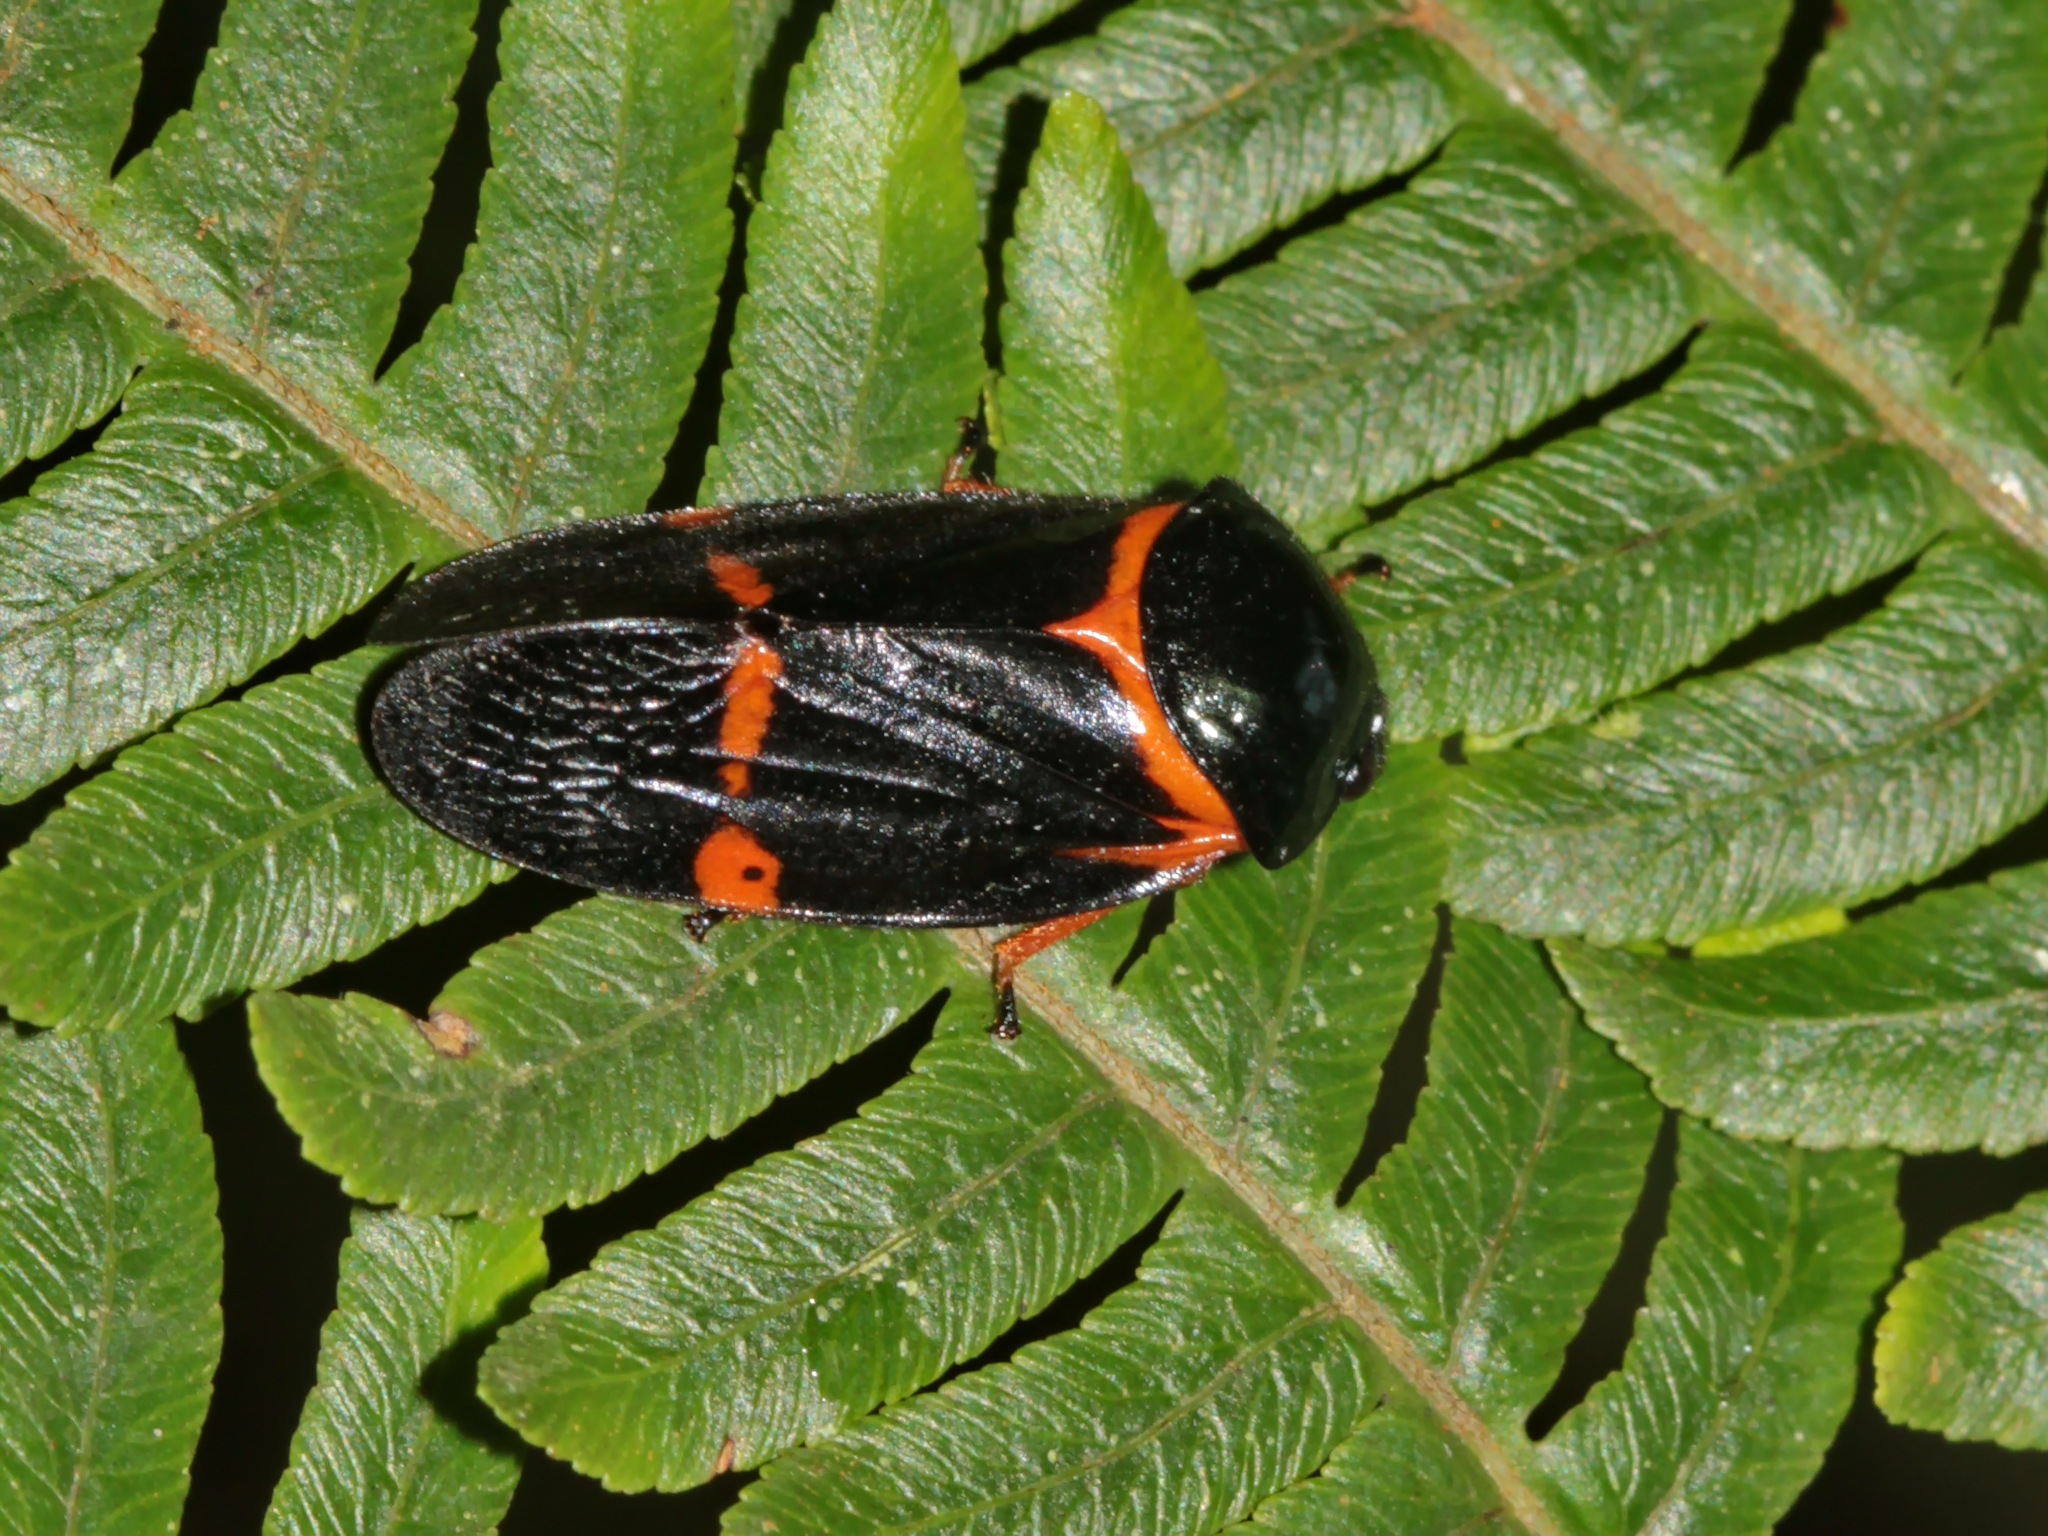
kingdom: Animalia
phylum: Arthropoda
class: Insecta
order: Hemiptera
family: Cercopidae
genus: Cosmoscarta
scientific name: Cosmoscarta prompta
